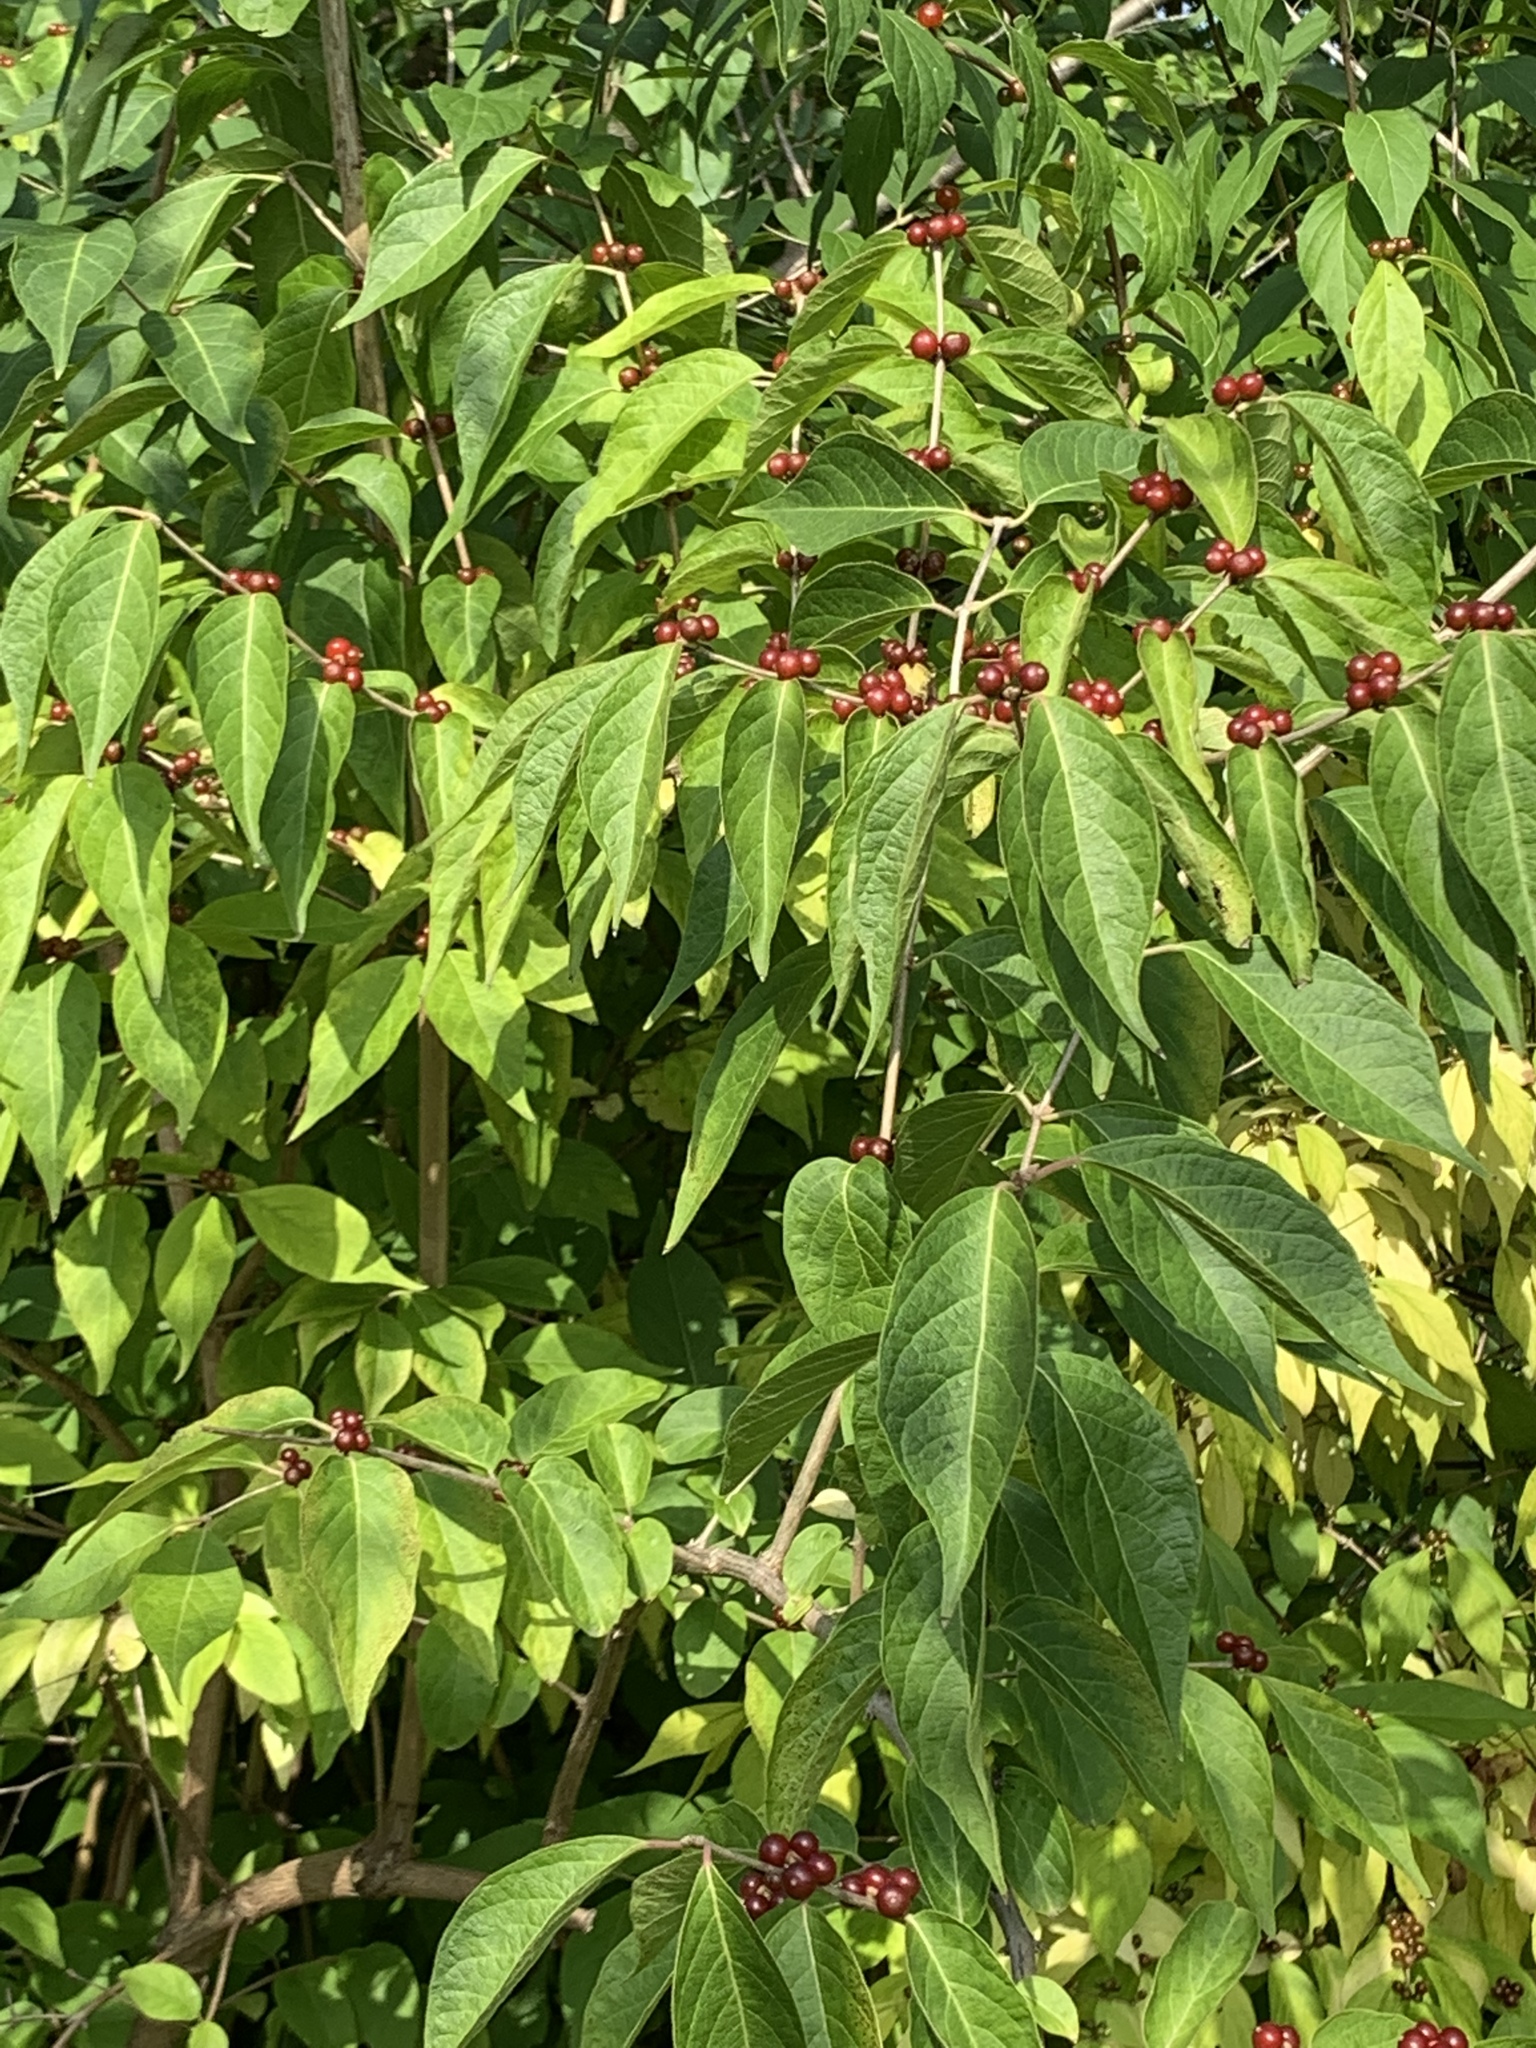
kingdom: Plantae
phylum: Tracheophyta
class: Magnoliopsida
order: Dipsacales
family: Caprifoliaceae
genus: Lonicera
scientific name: Lonicera maackii
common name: Amur honeysuckle
